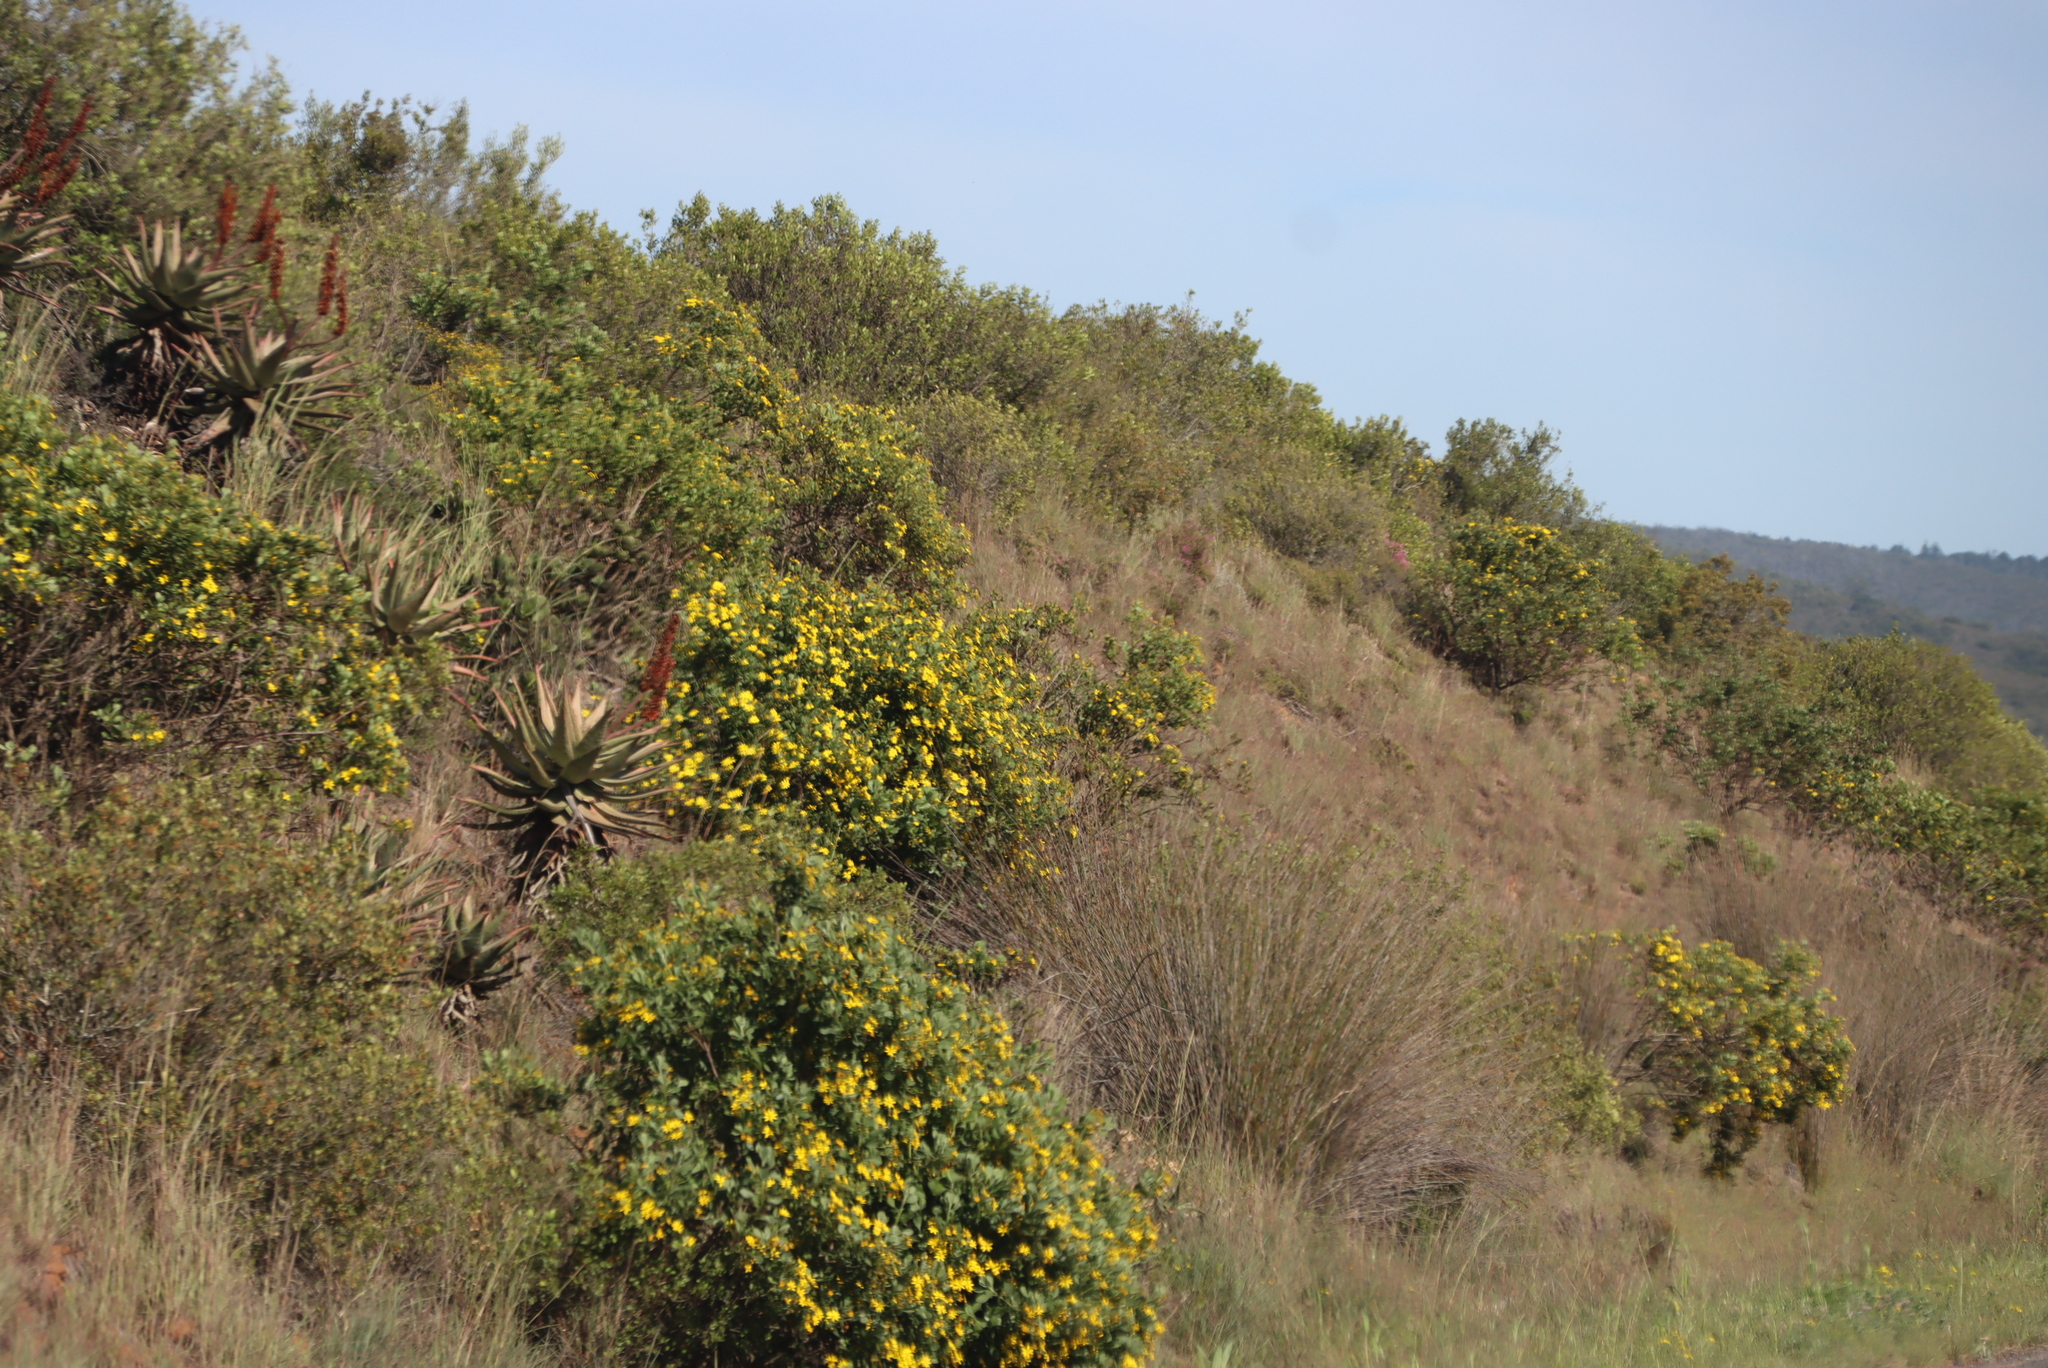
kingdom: Plantae
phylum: Tracheophyta
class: Liliopsida
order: Poales
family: Restionaceae
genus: Thamnochortus
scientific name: Thamnochortus insignis
